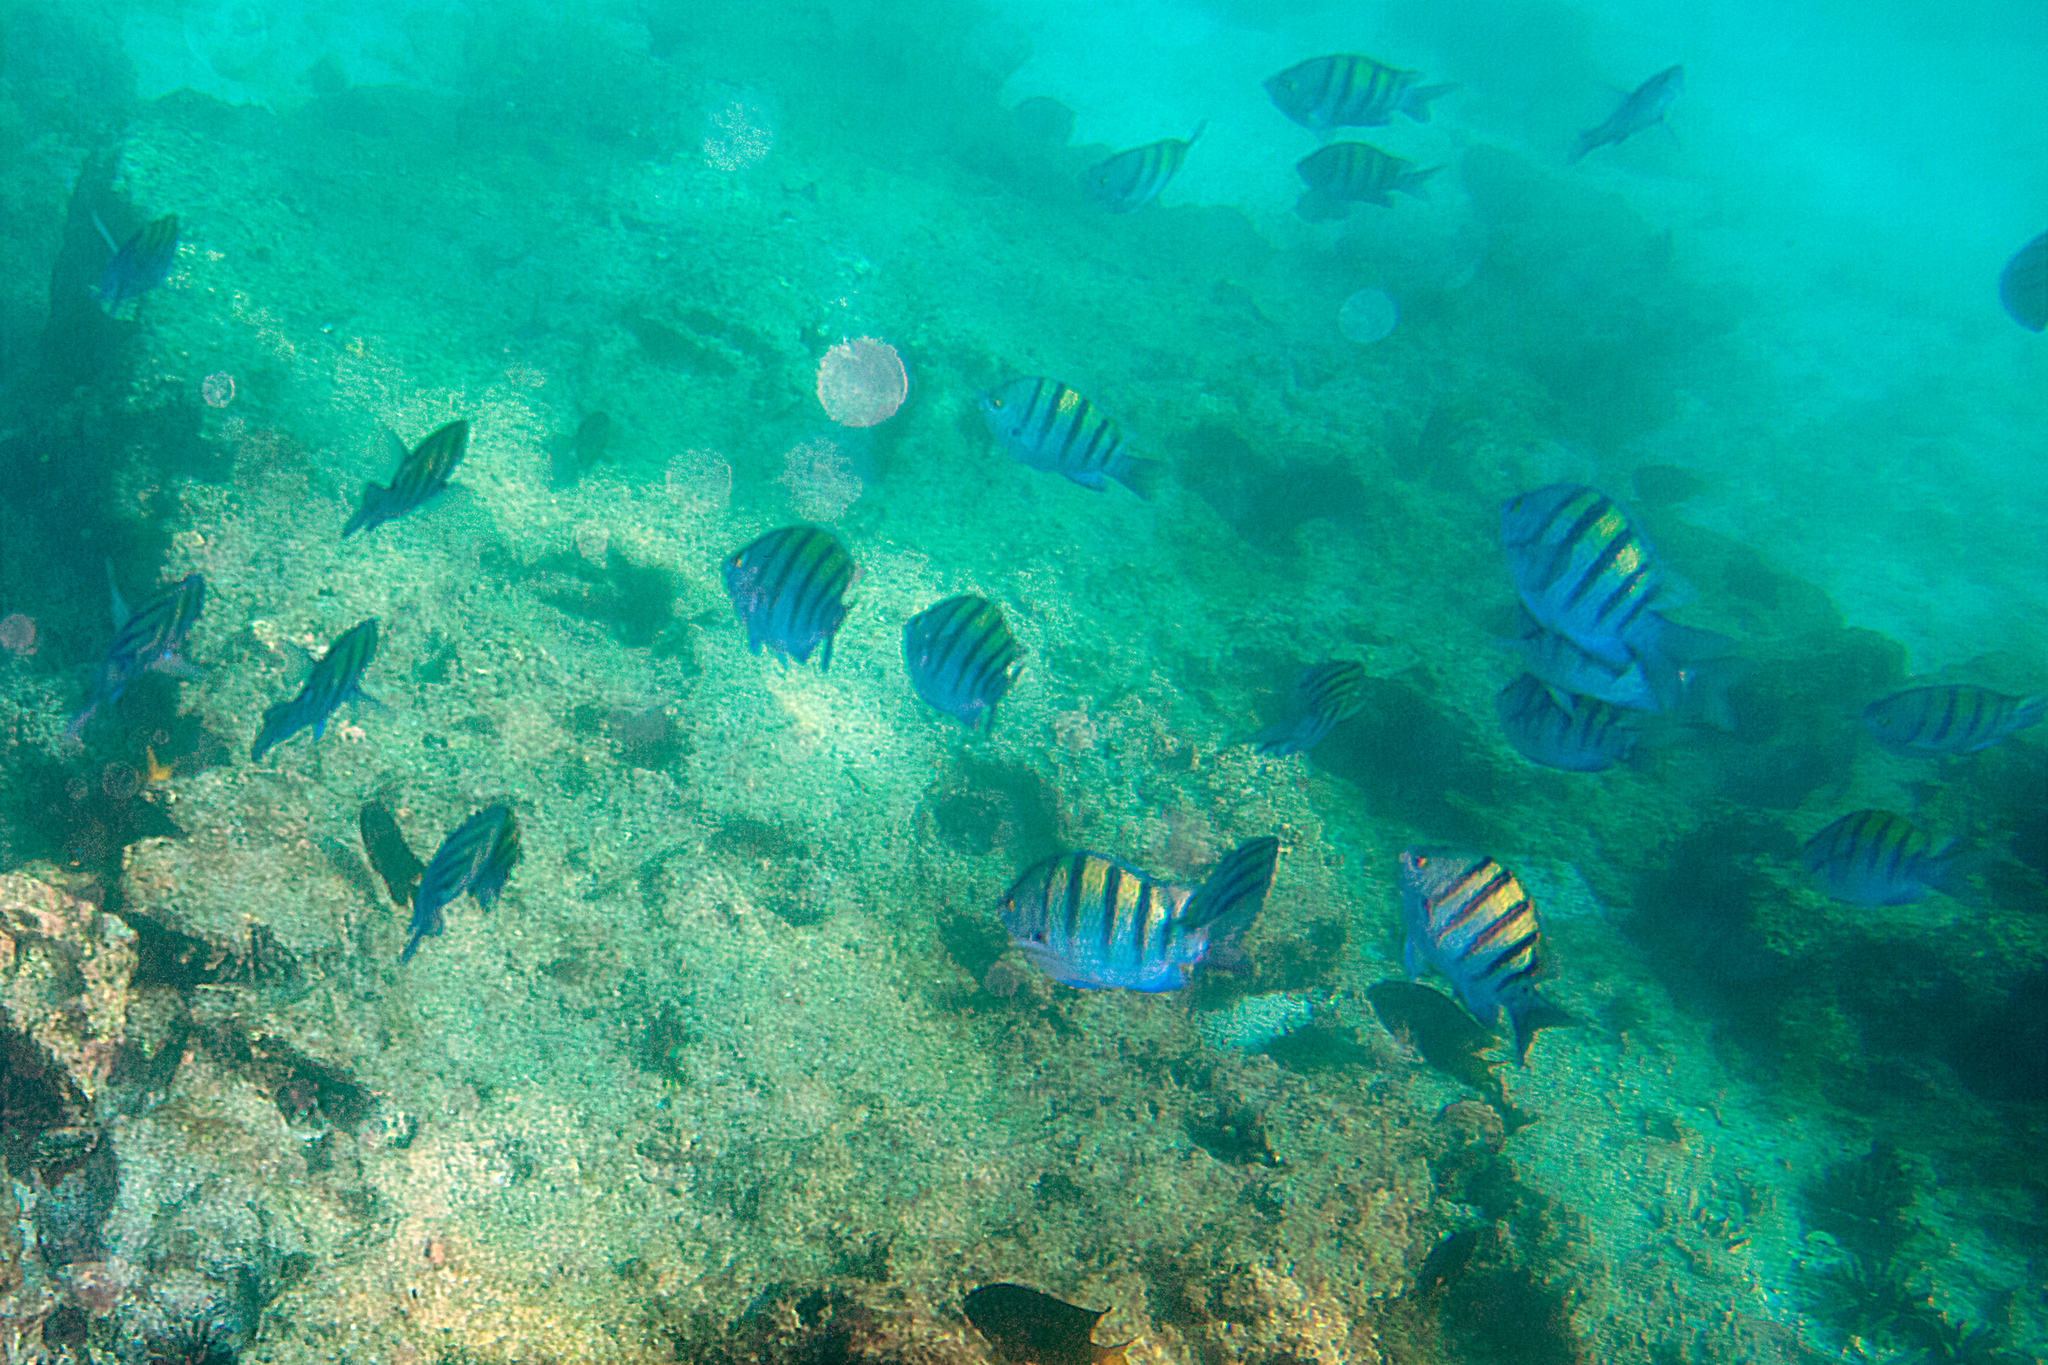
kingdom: Animalia
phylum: Chordata
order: Perciformes
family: Pomacentridae
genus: Abudefduf
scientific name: Abudefduf troschelii
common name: Panamic sergeant major
